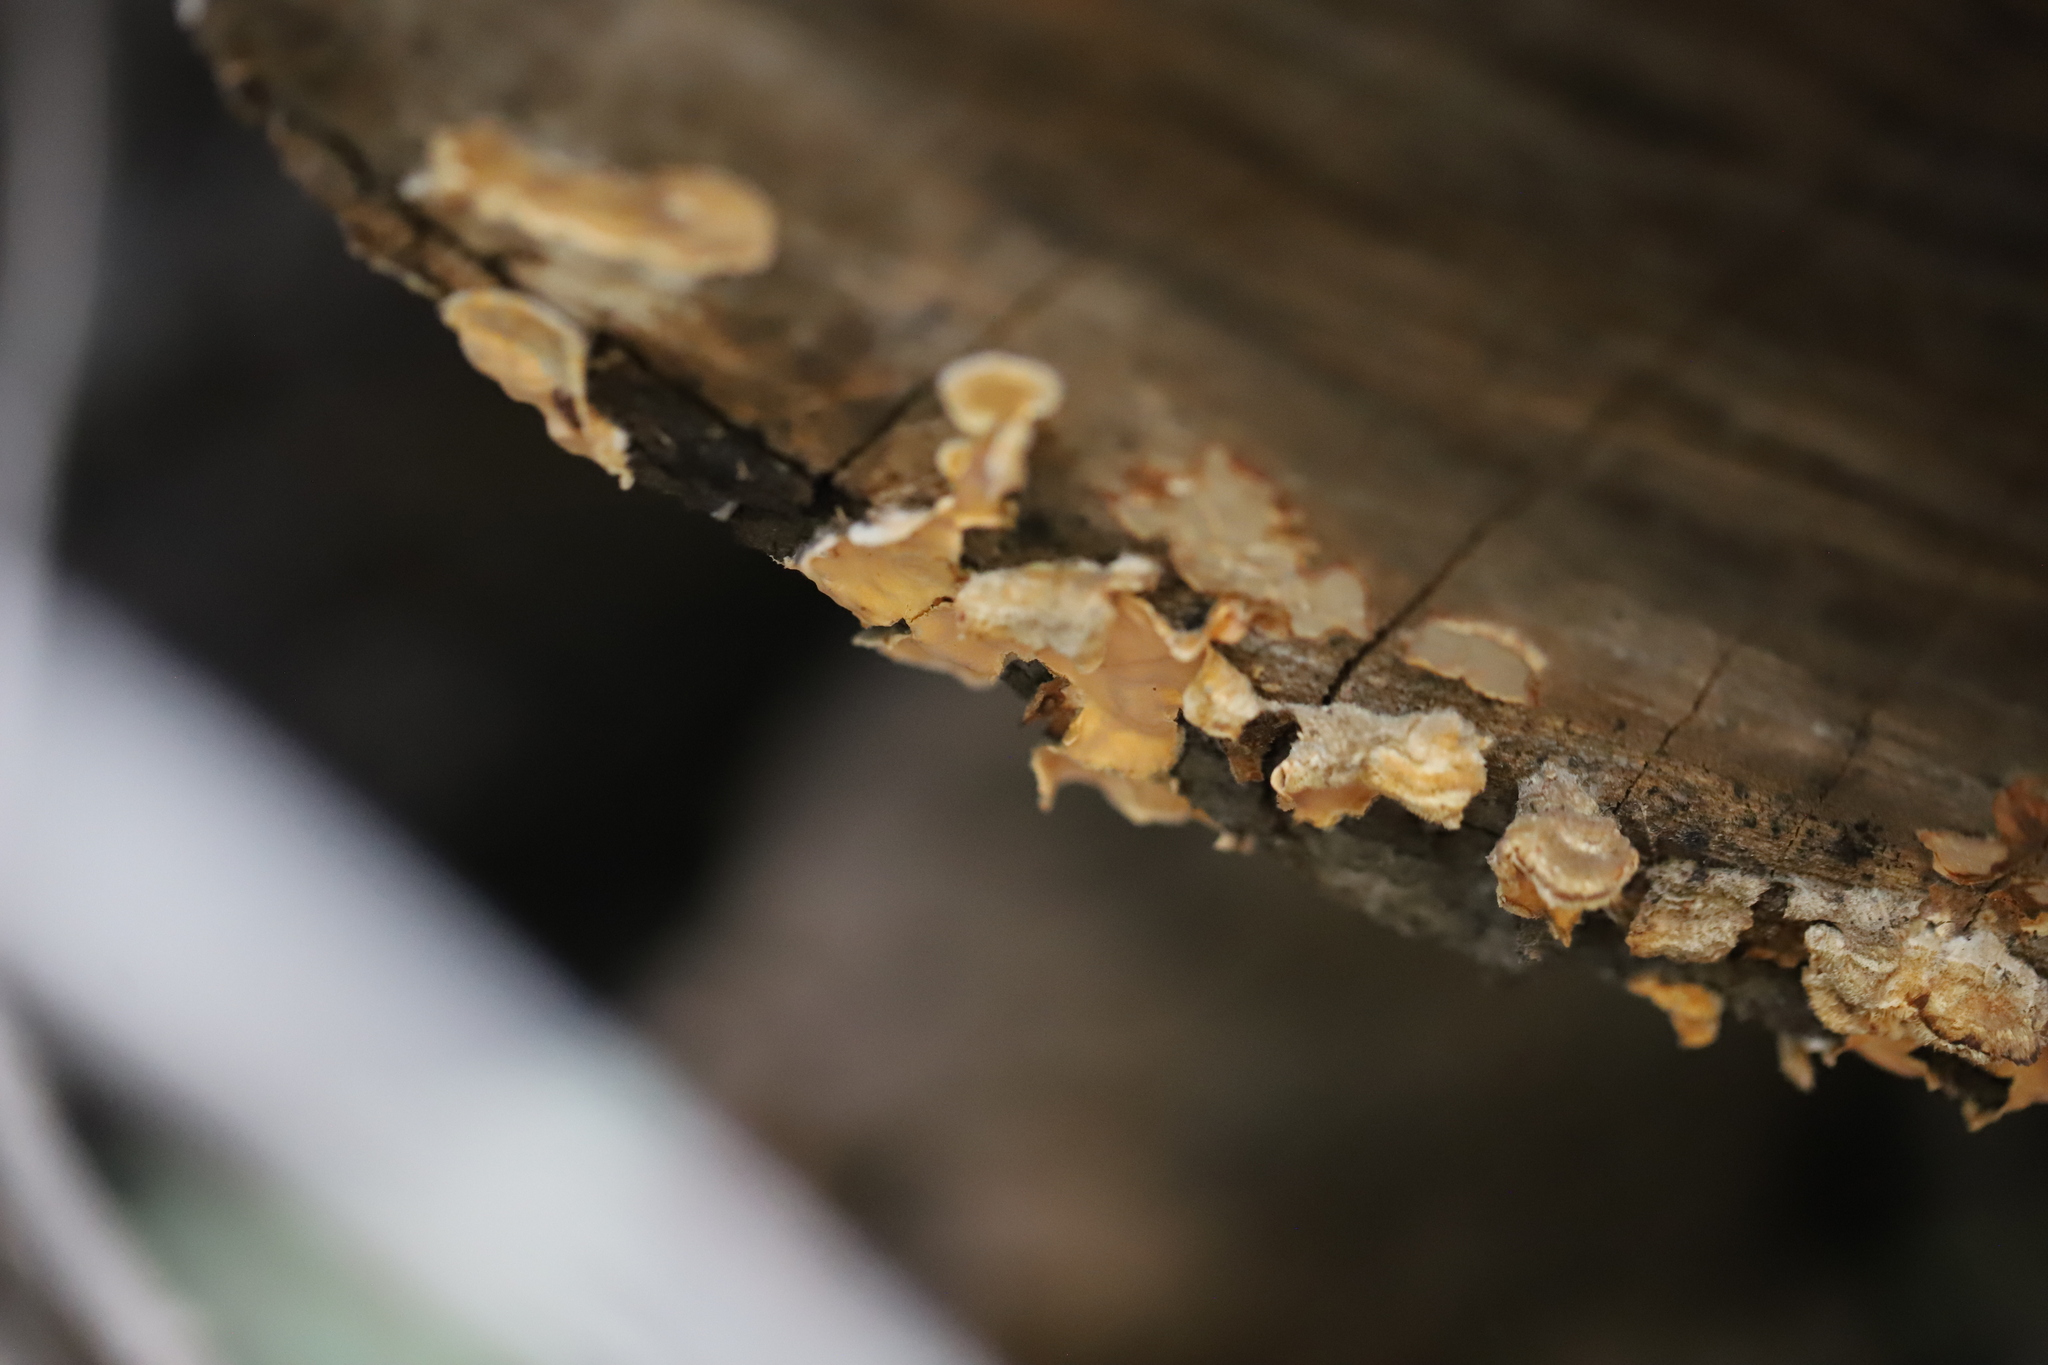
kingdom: Fungi
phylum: Basidiomycota
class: Agaricomycetes
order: Russulales
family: Stereaceae
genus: Stereum
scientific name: Stereum hirsutum
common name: Hairy curtain crust
